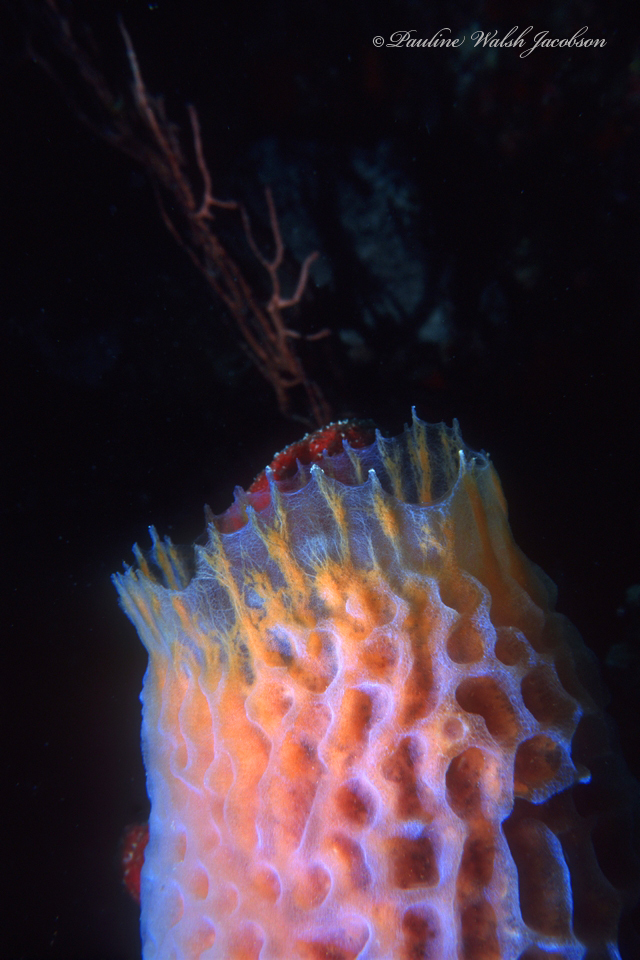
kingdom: Animalia
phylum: Porifera
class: Demospongiae
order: Haplosclerida
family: Callyspongiidae
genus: Callyspongia
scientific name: Callyspongia plicifera
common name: Azure vase sponge
